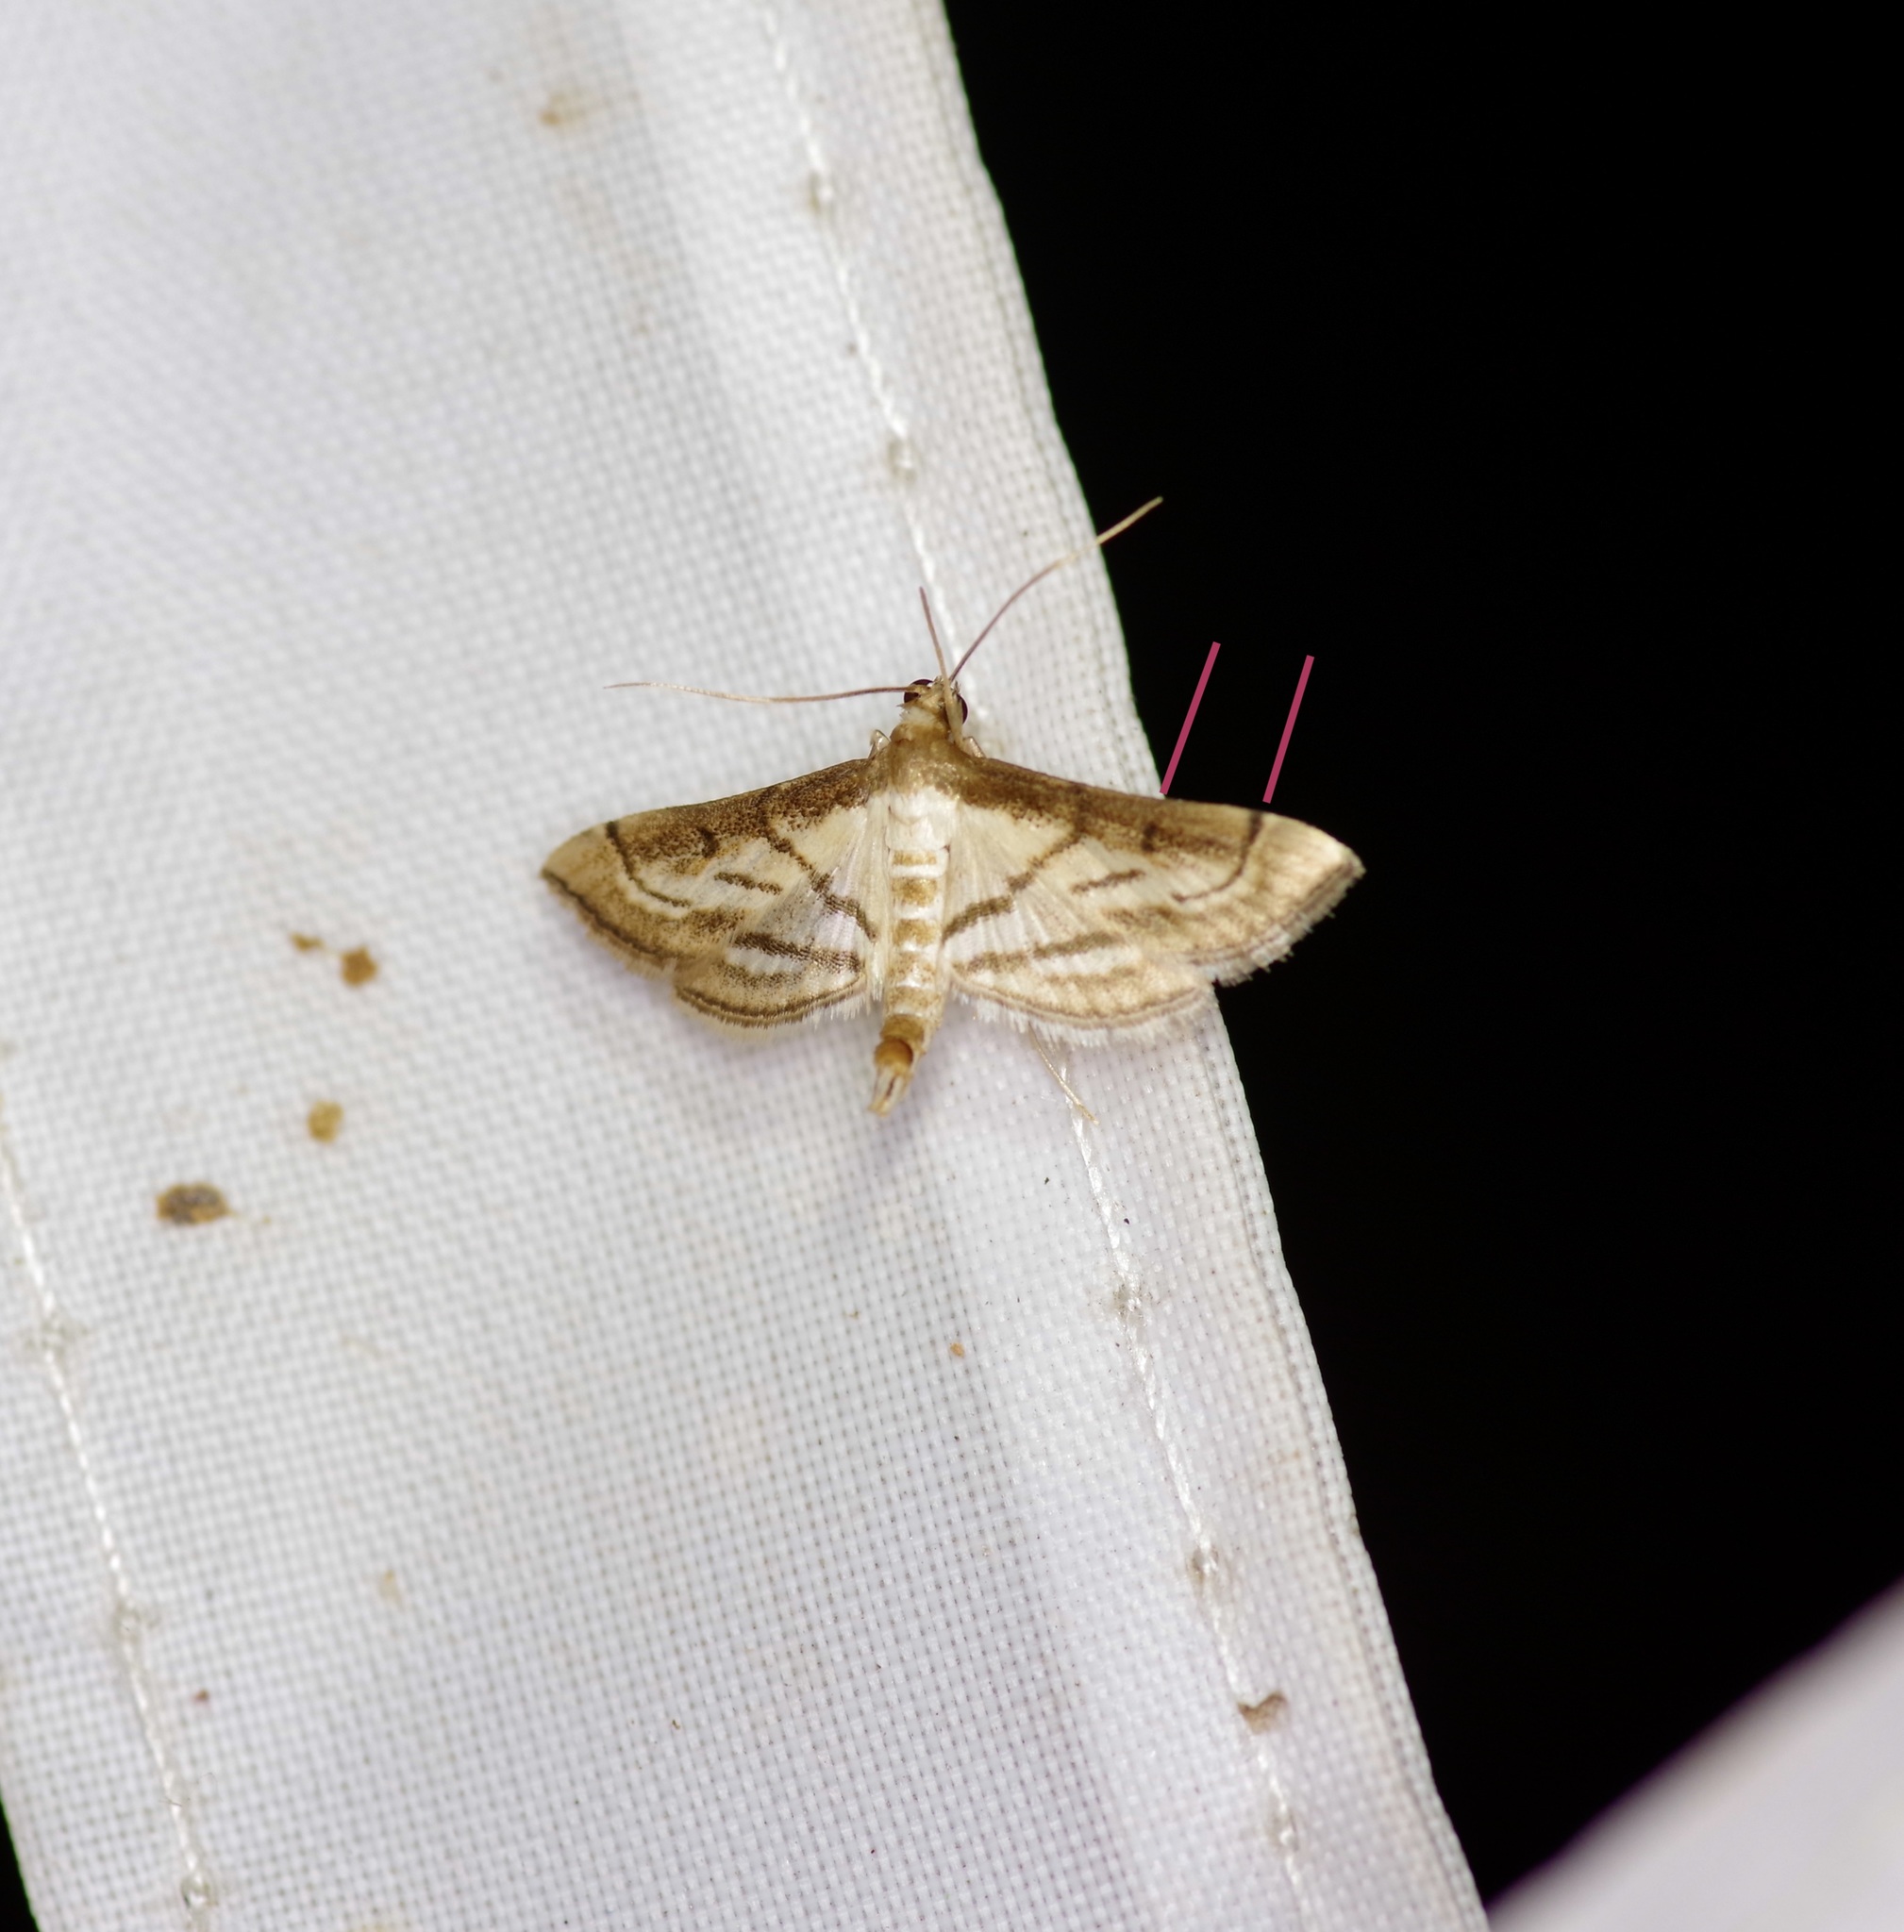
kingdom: Animalia
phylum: Arthropoda
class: Insecta
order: Lepidoptera
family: Crambidae
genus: Cnaphalocrocis
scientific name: Cnaphalocrocis Marasmia trapezalis
